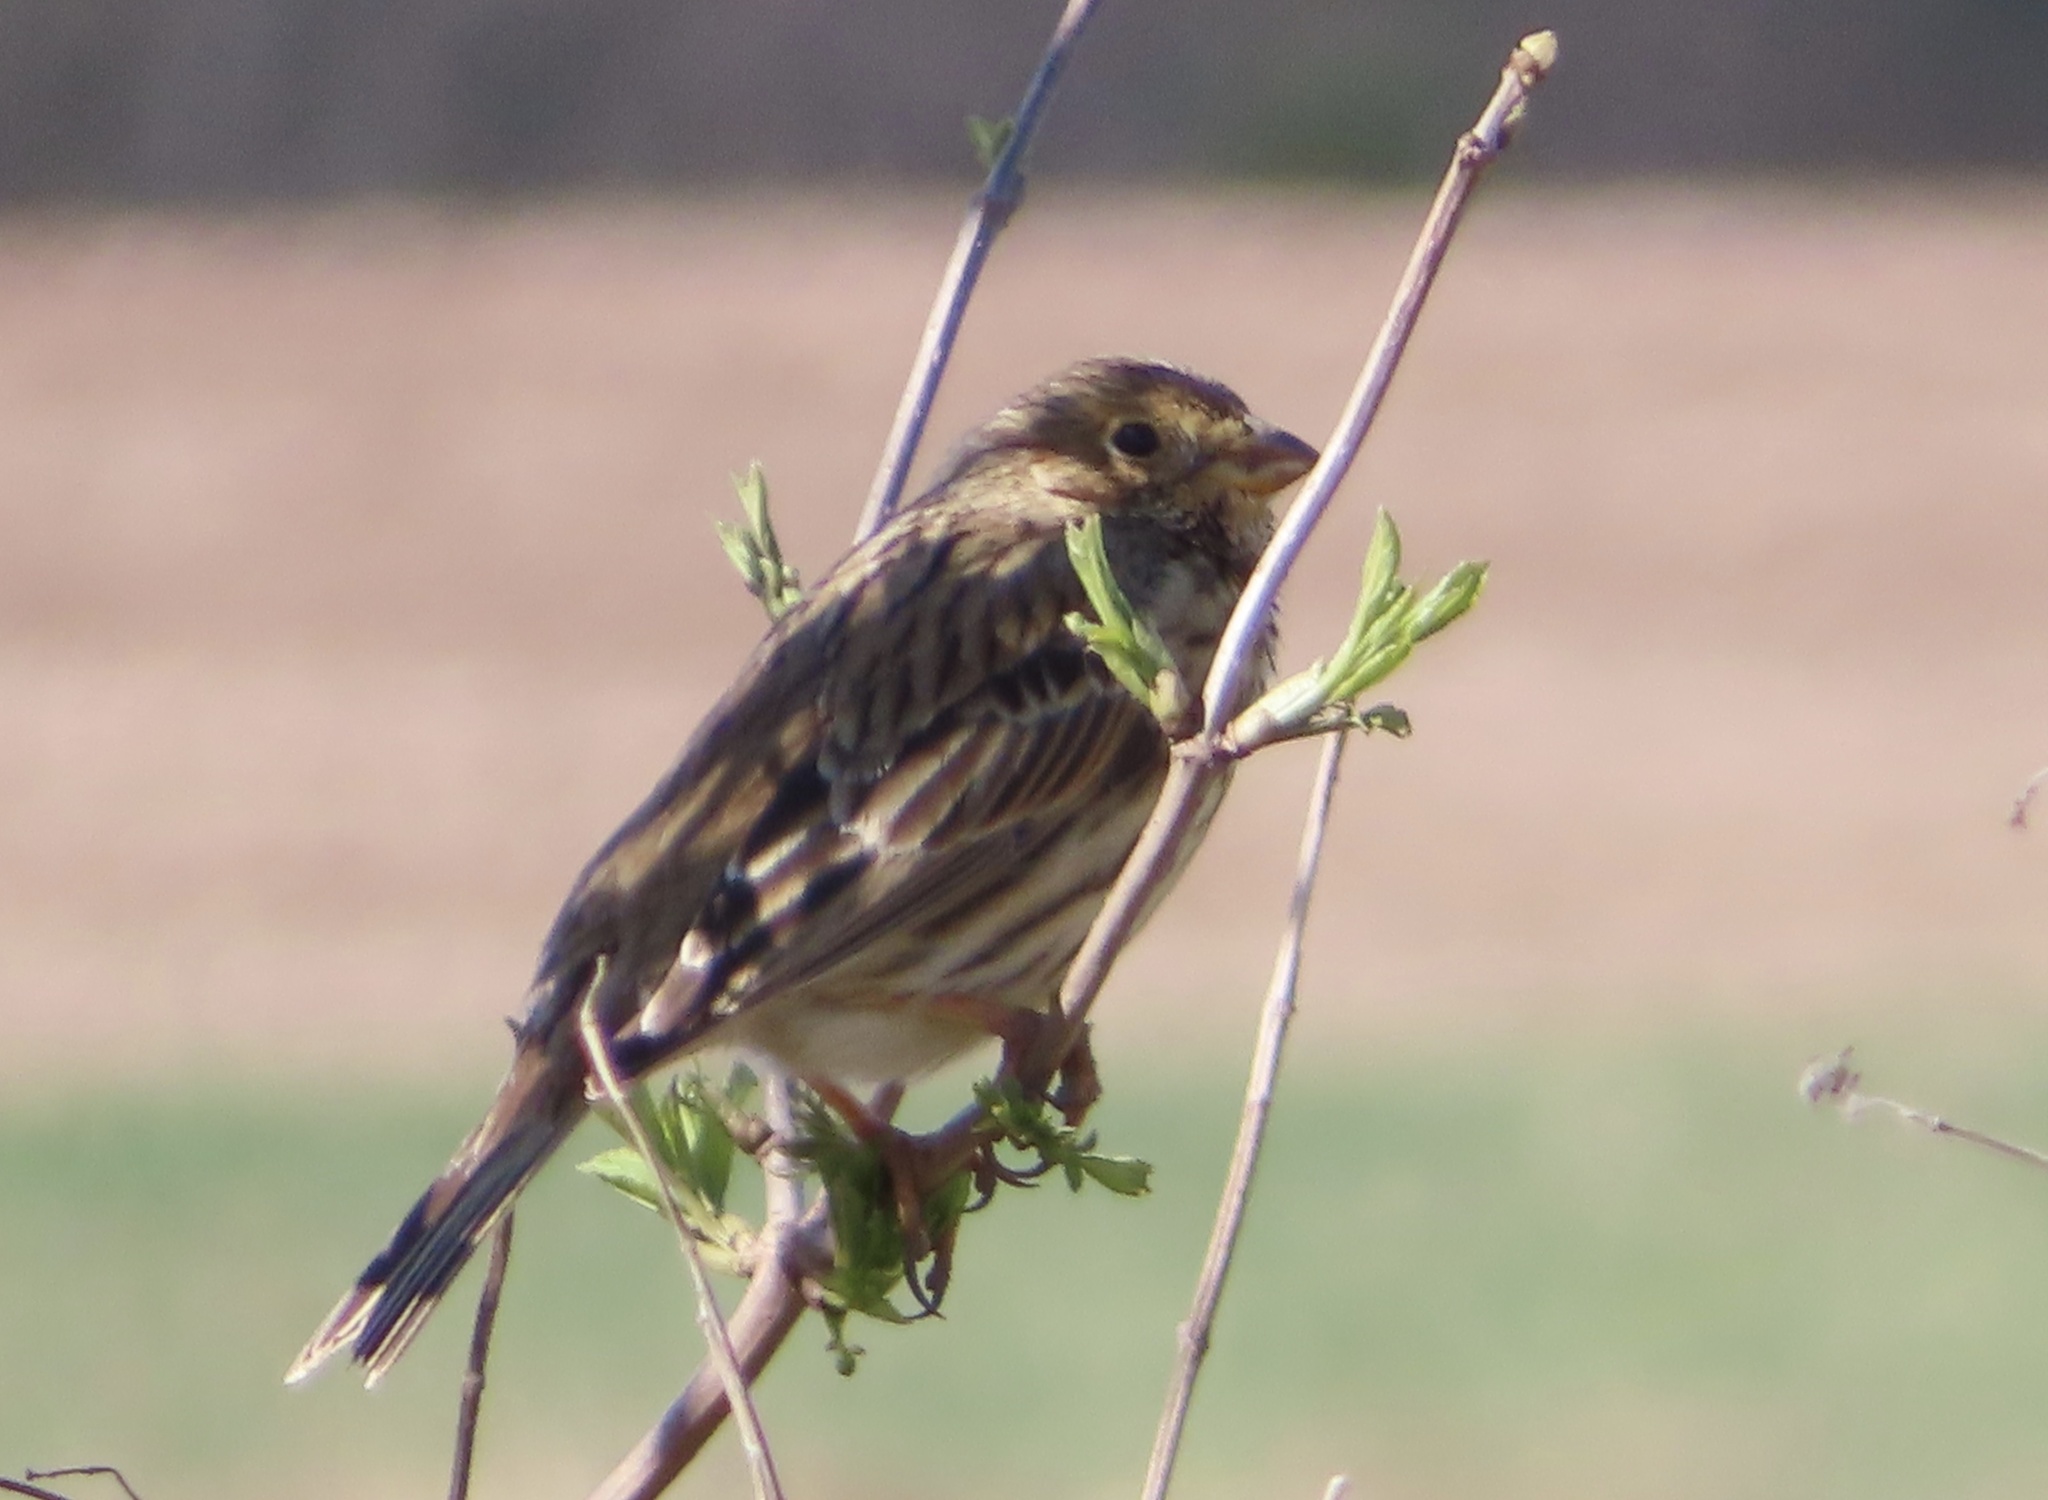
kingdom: Animalia
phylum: Chordata
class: Aves
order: Passeriformes
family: Emberizidae
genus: Emberiza
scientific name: Emberiza calandra
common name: Corn bunting
